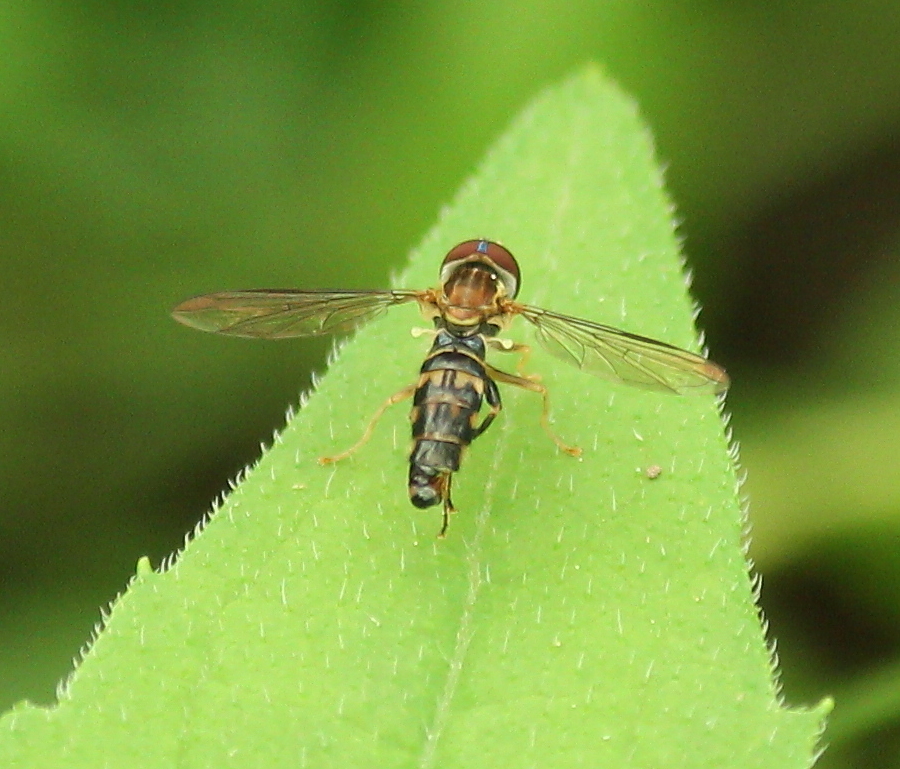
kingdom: Animalia
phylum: Arthropoda
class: Insecta
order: Diptera
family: Syrphidae
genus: Toxomerus
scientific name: Toxomerus geminatus
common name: Eastern calligrapher
